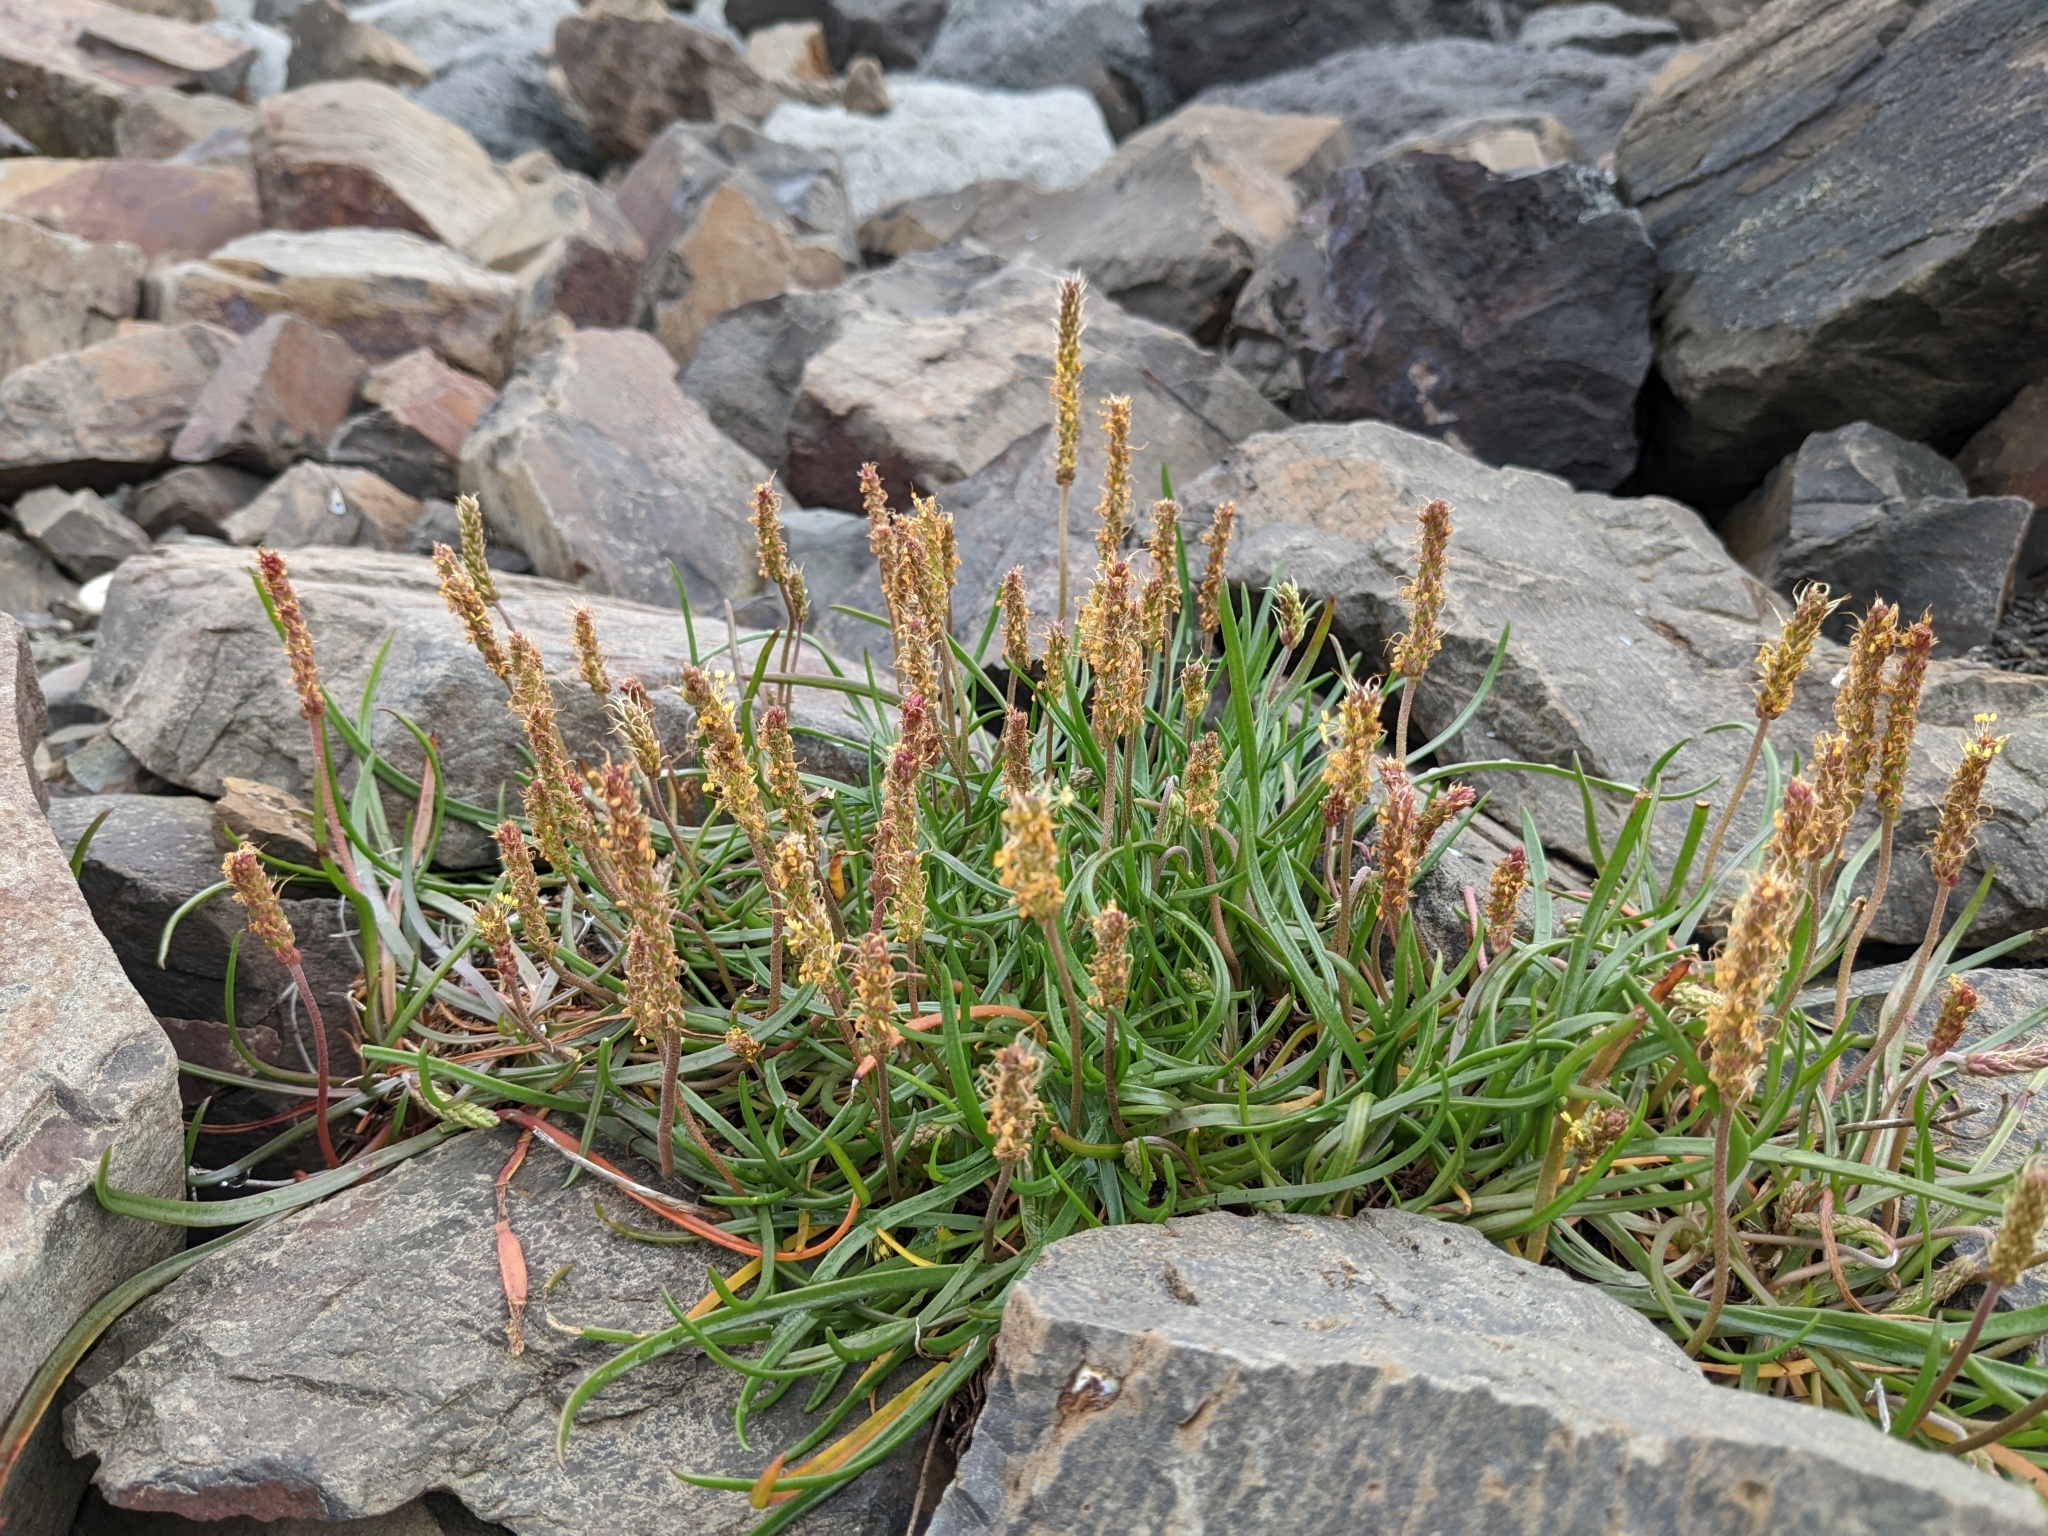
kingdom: Plantae
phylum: Tracheophyta
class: Magnoliopsida
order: Lamiales
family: Plantaginaceae
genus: Plantago
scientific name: Plantago maritima
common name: Sea plantain
